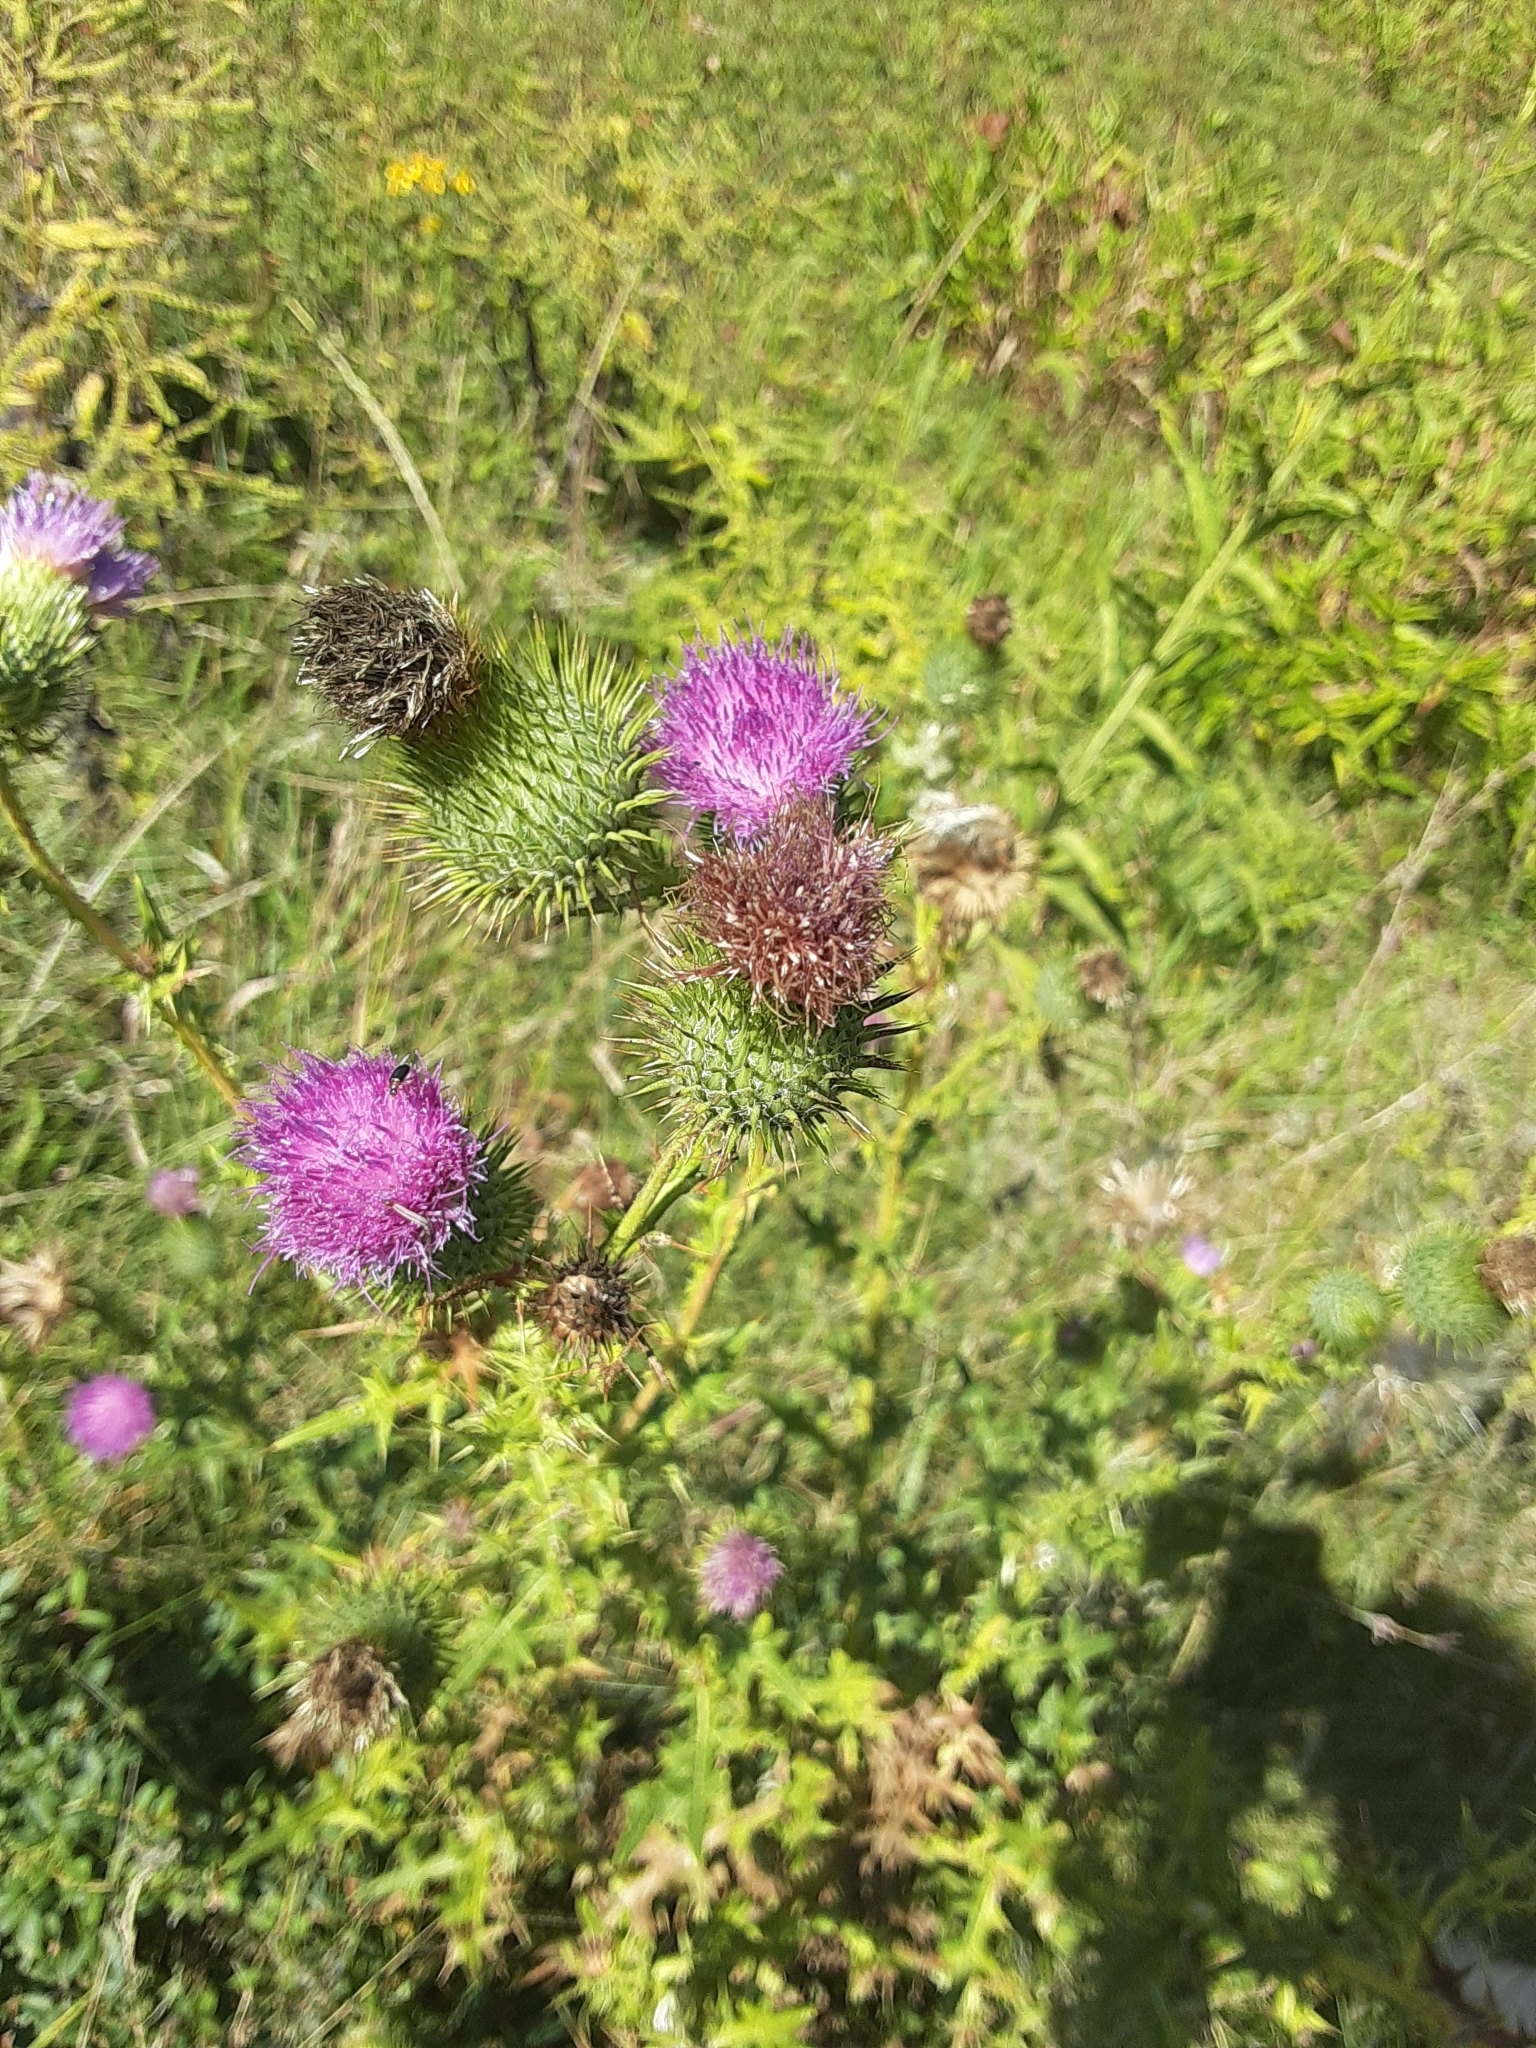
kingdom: Plantae
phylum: Tracheophyta
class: Magnoliopsida
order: Asterales
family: Asteraceae
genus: Cirsium
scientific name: Cirsium vulgare
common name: Bull thistle
